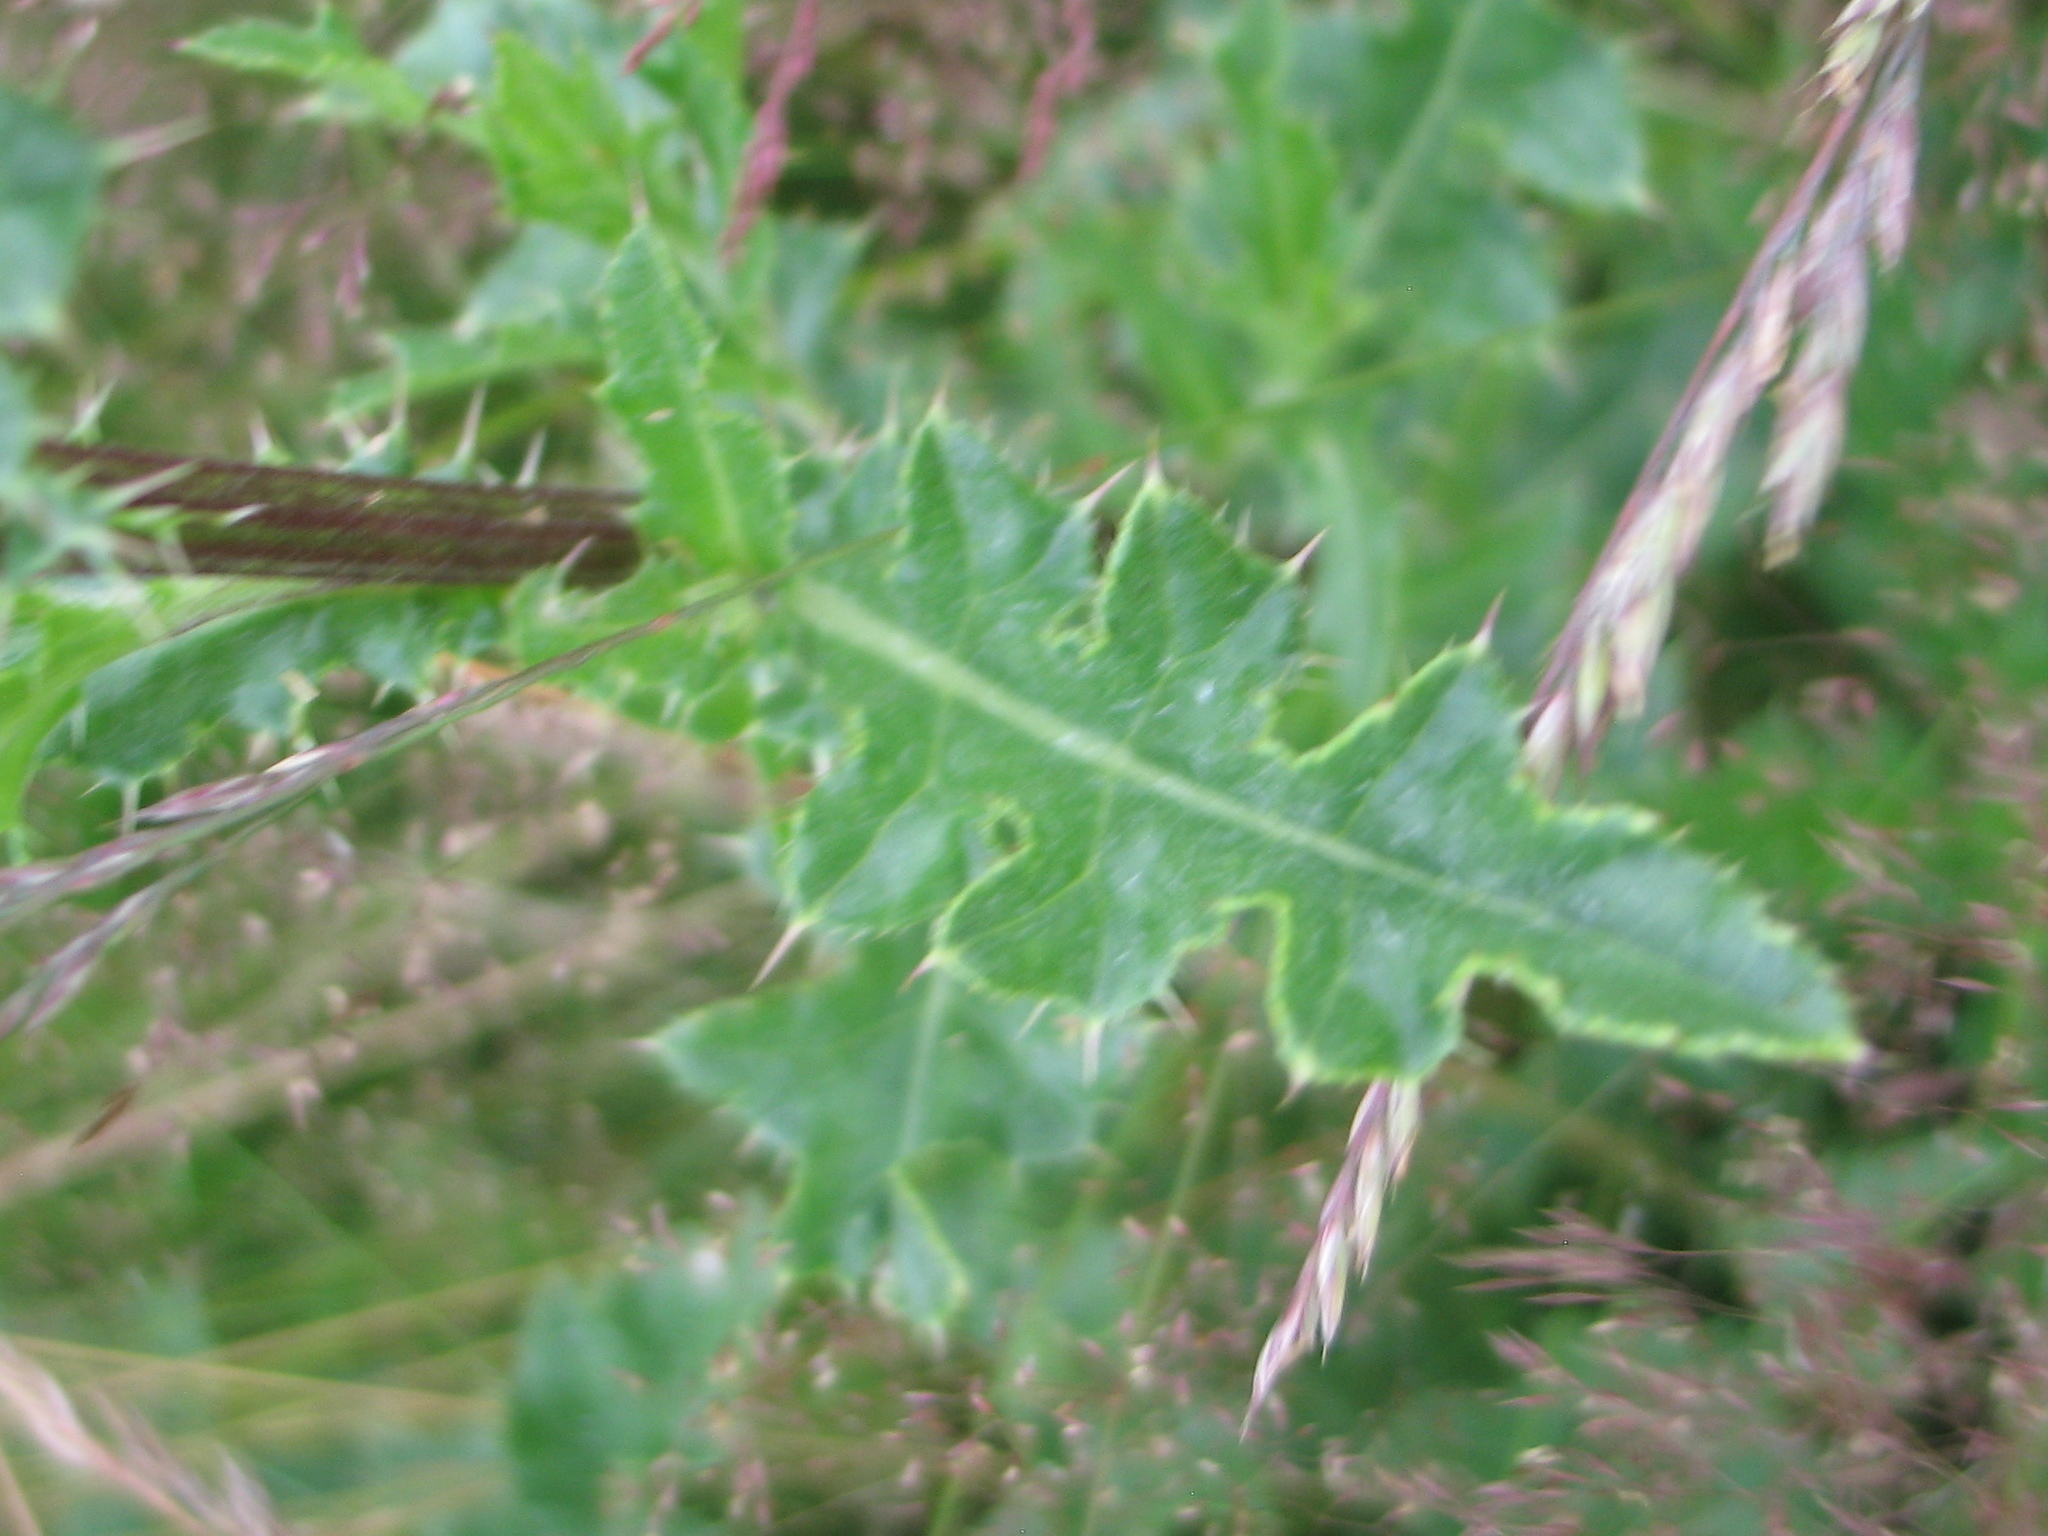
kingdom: Plantae
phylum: Tracheophyta
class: Magnoliopsida
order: Asterales
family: Asteraceae
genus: Cirsium
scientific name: Cirsium arvense
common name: Creeping thistle
